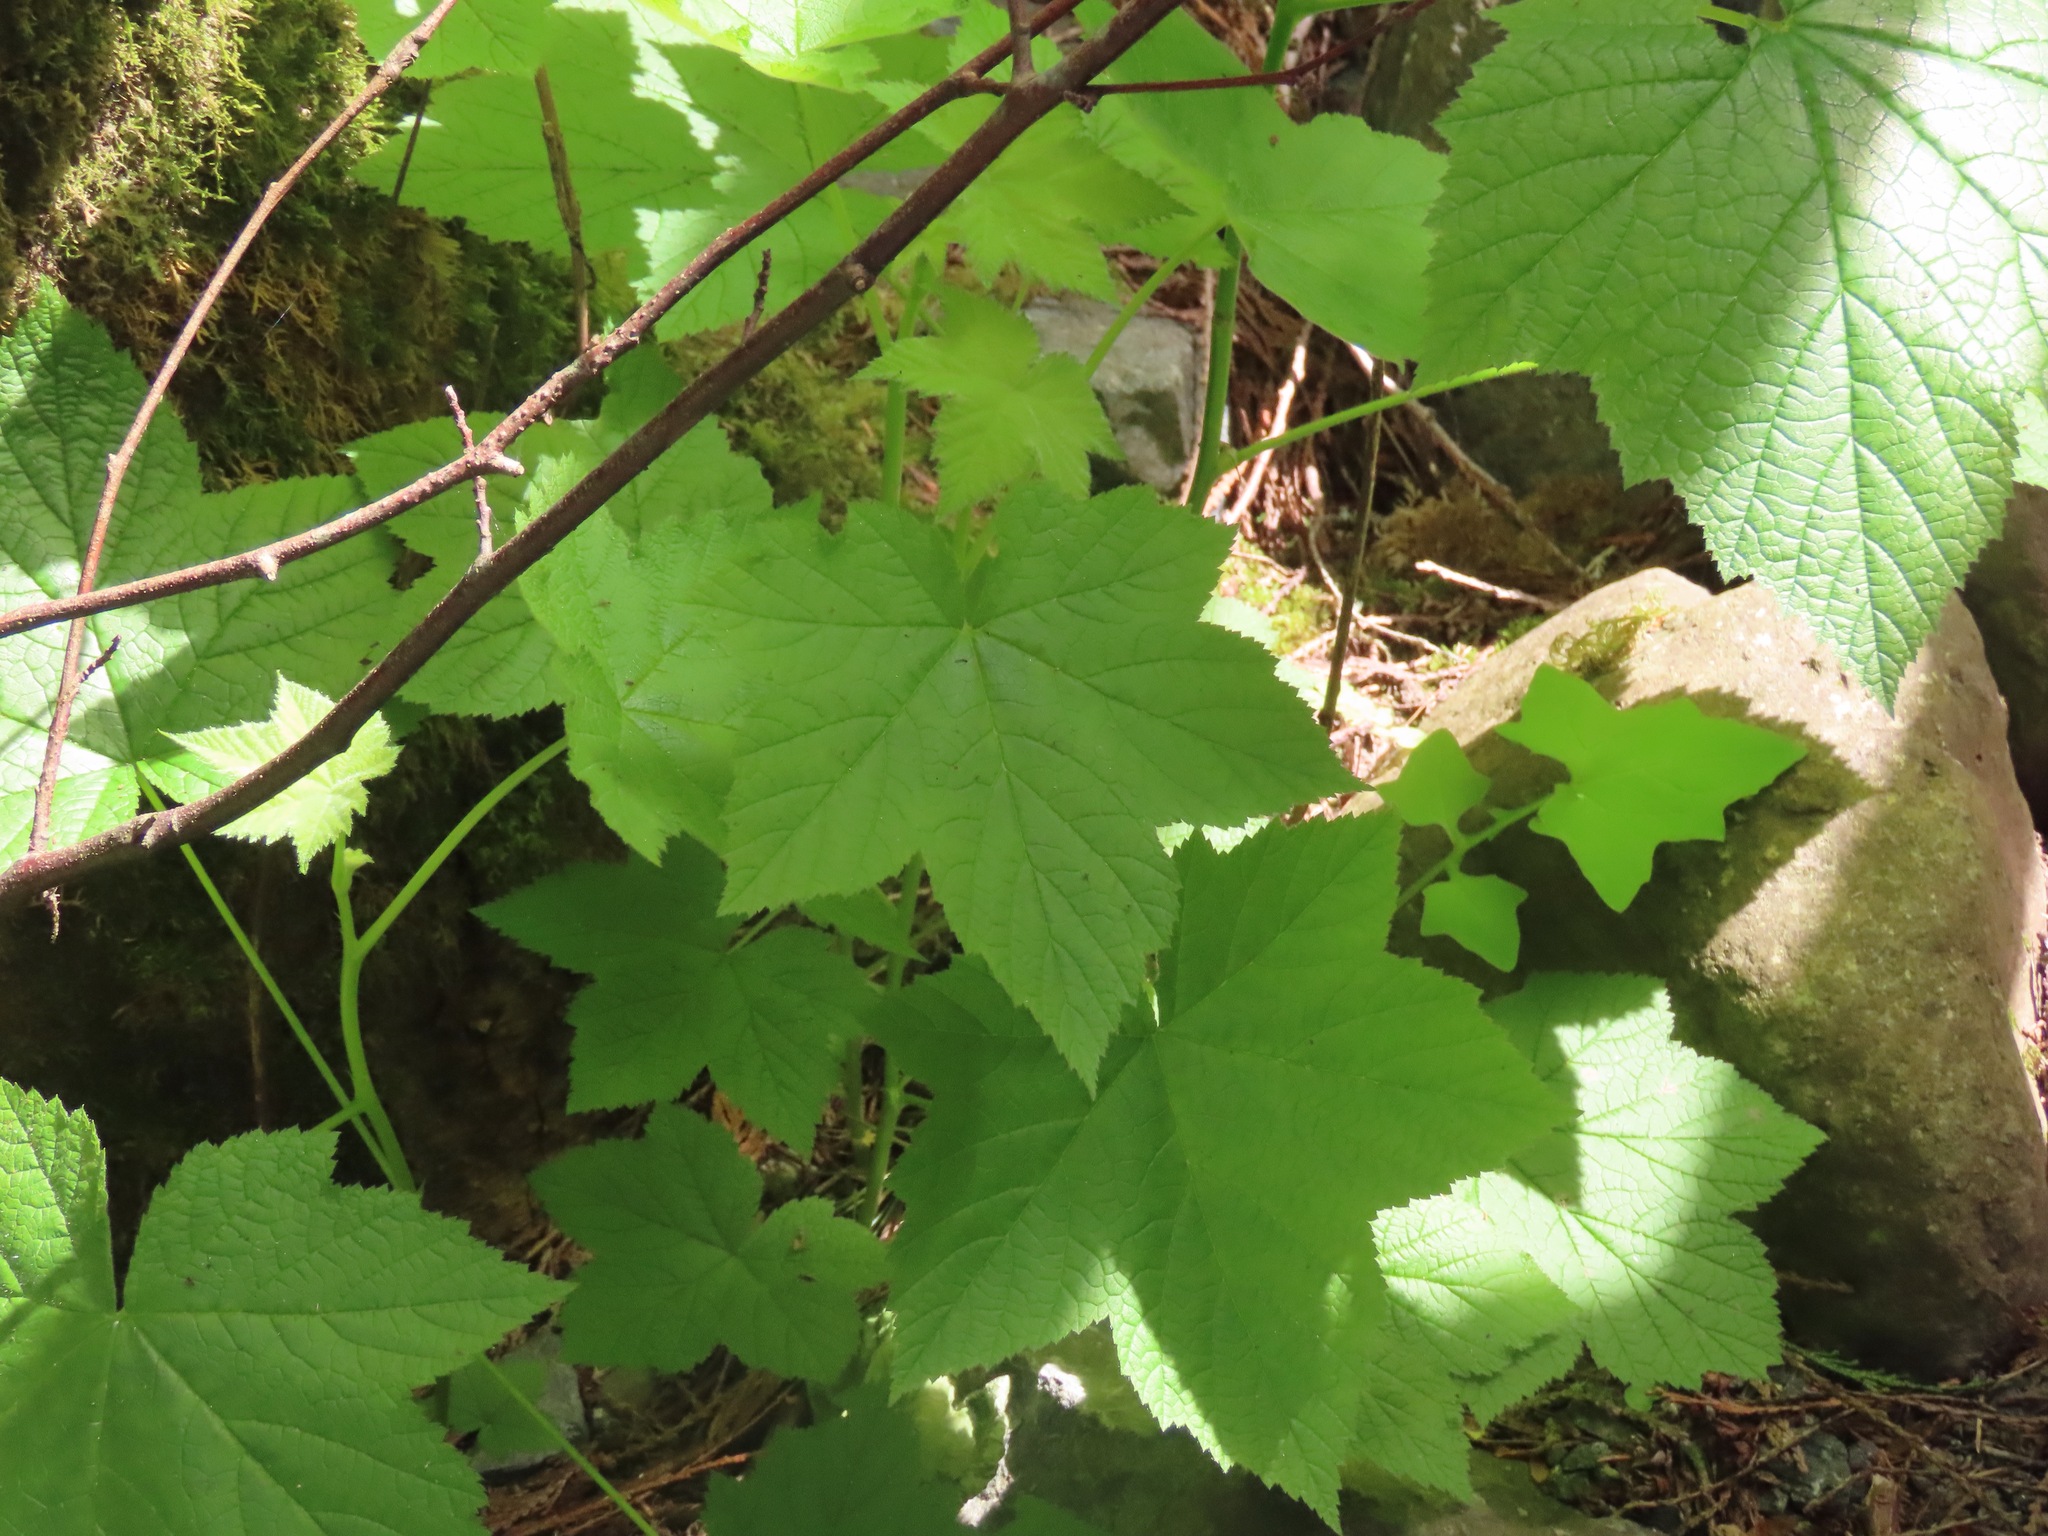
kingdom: Plantae
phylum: Tracheophyta
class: Magnoliopsida
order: Rosales
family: Rosaceae
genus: Rubus
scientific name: Rubus parviflorus
